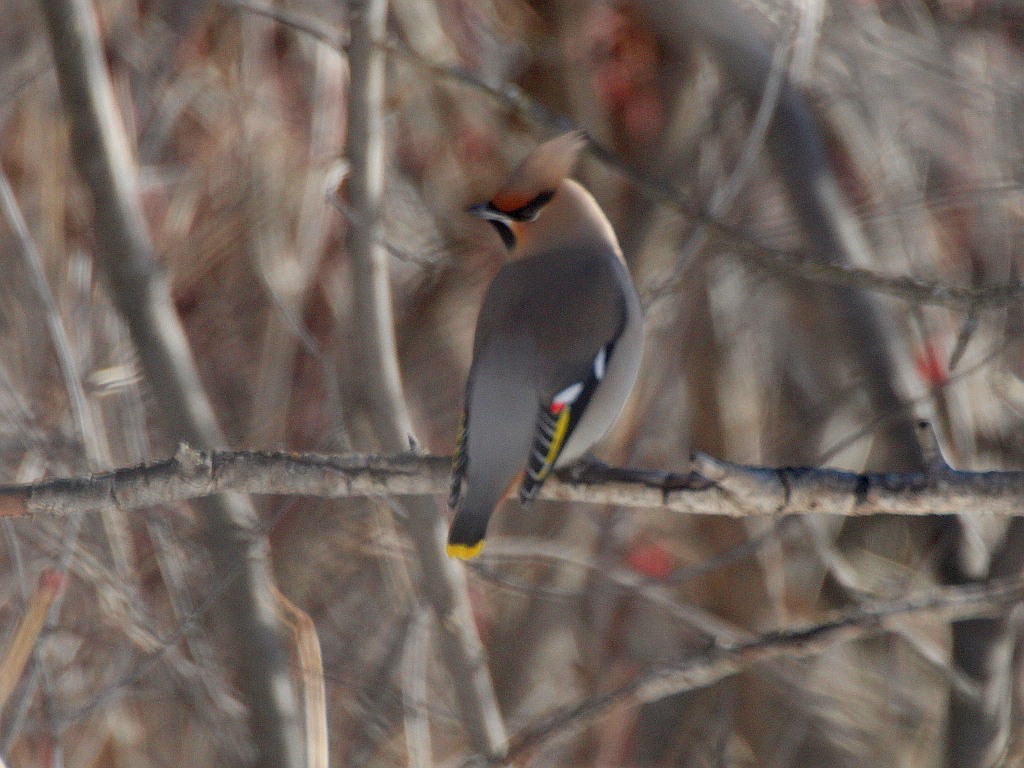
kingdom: Animalia
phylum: Chordata
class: Aves
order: Passeriformes
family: Bombycillidae
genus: Bombycilla
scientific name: Bombycilla garrulus
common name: Bohemian waxwing
